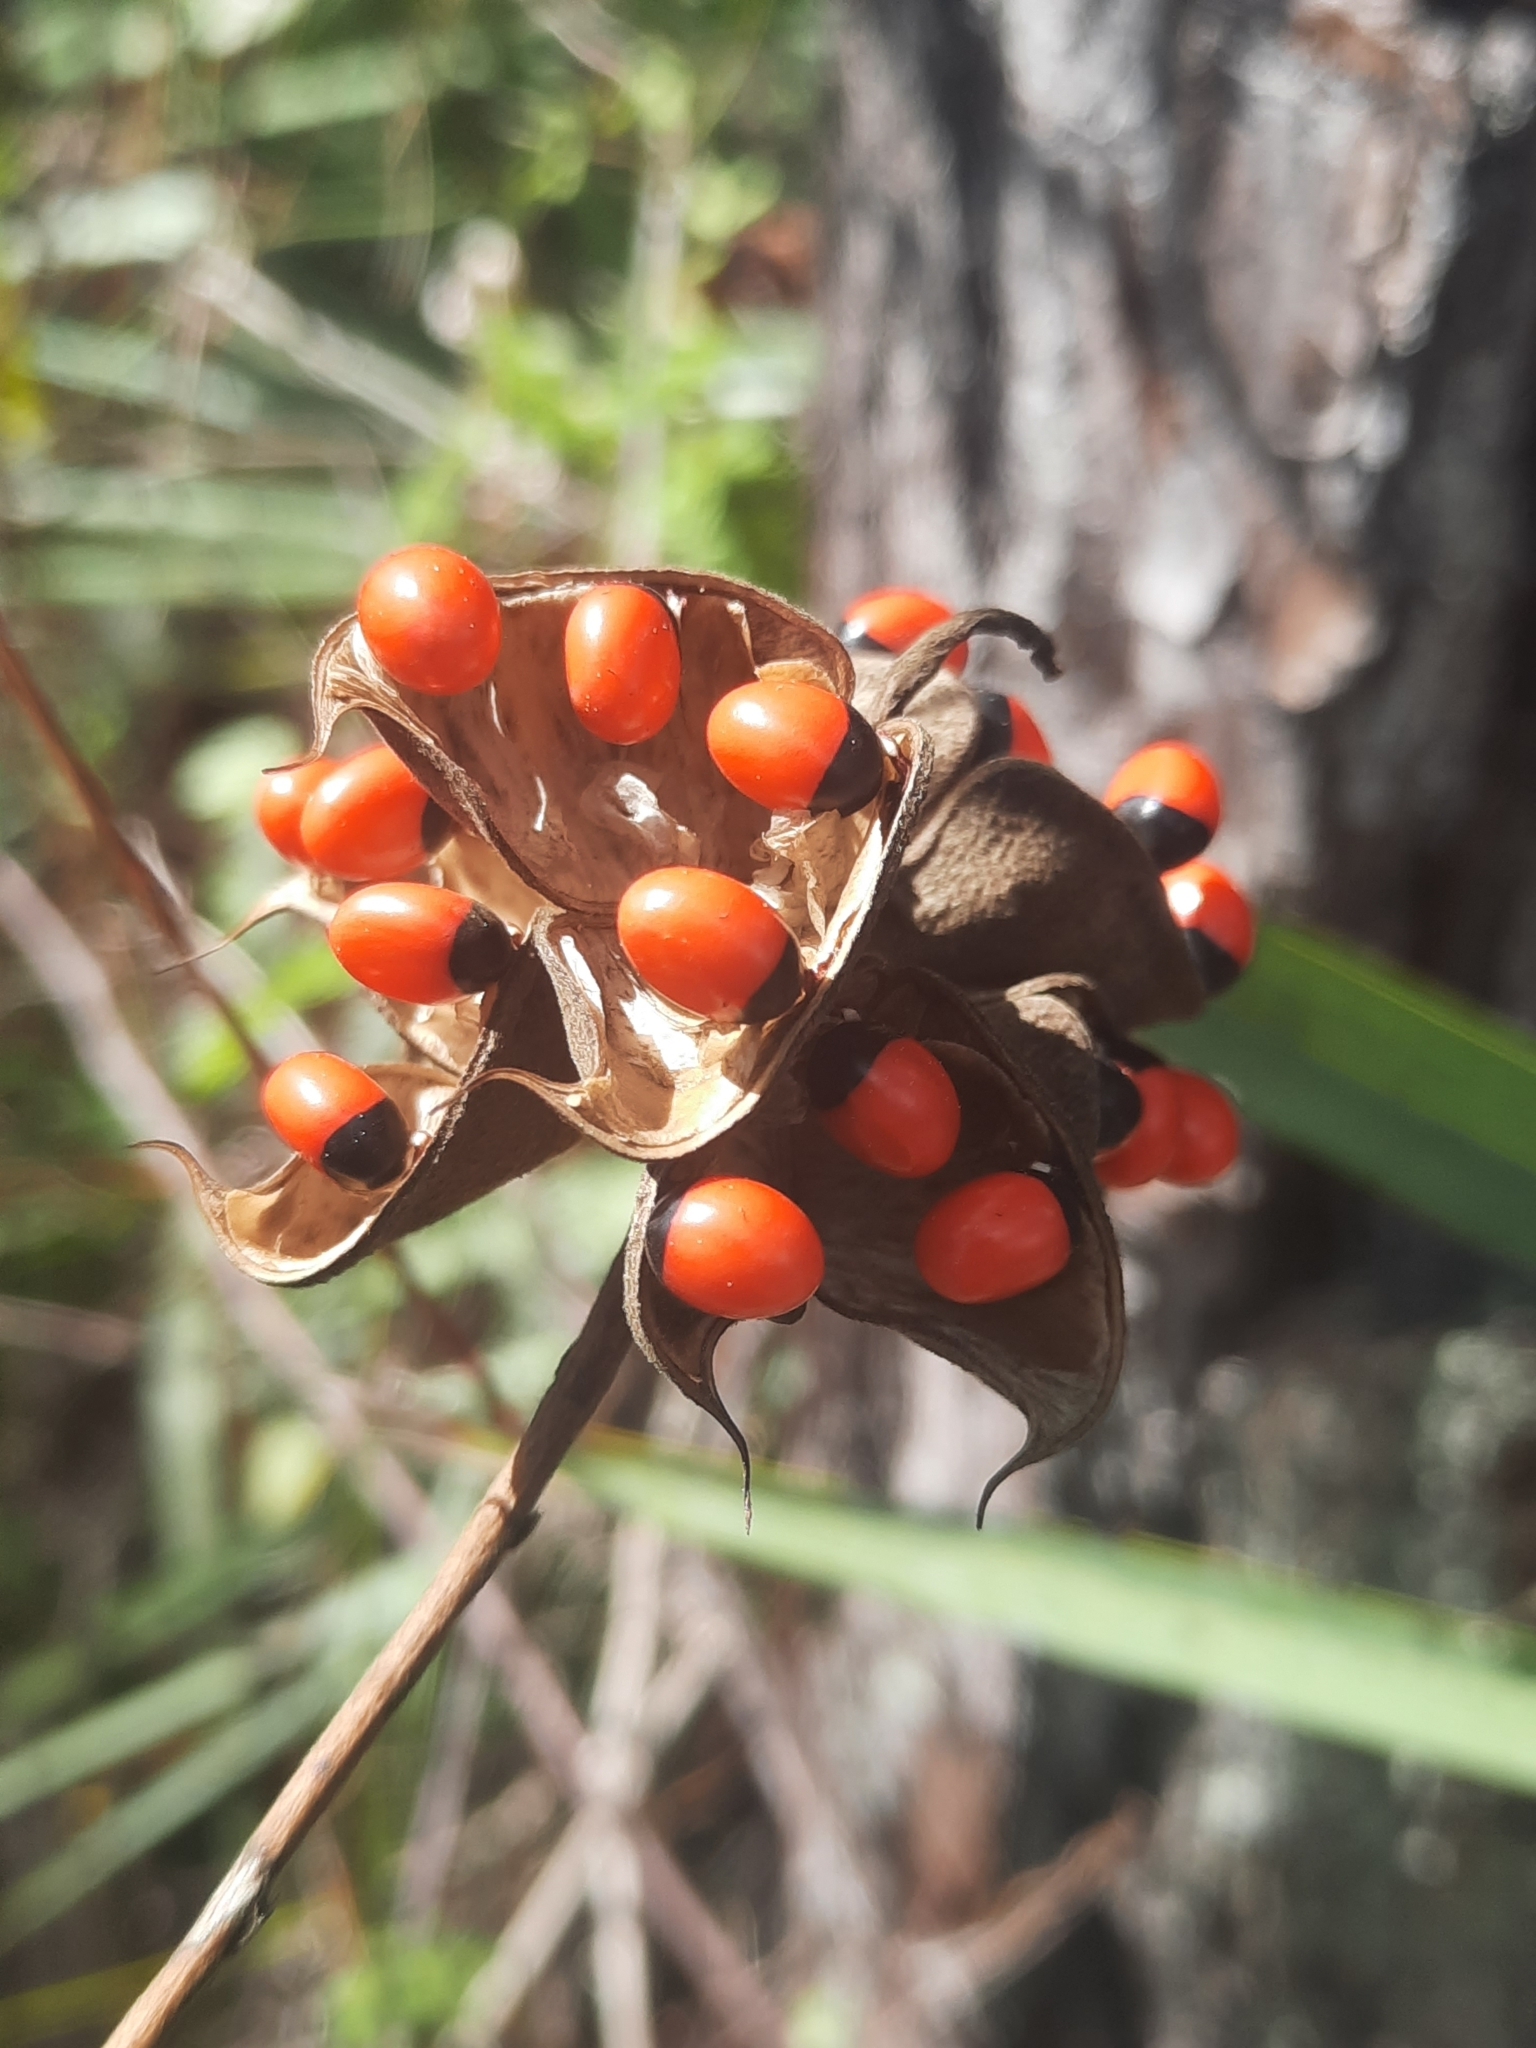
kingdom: Plantae
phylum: Tracheophyta
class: Magnoliopsida
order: Fabales
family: Fabaceae
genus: Abrus
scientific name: Abrus precatorius
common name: Rosarypea
